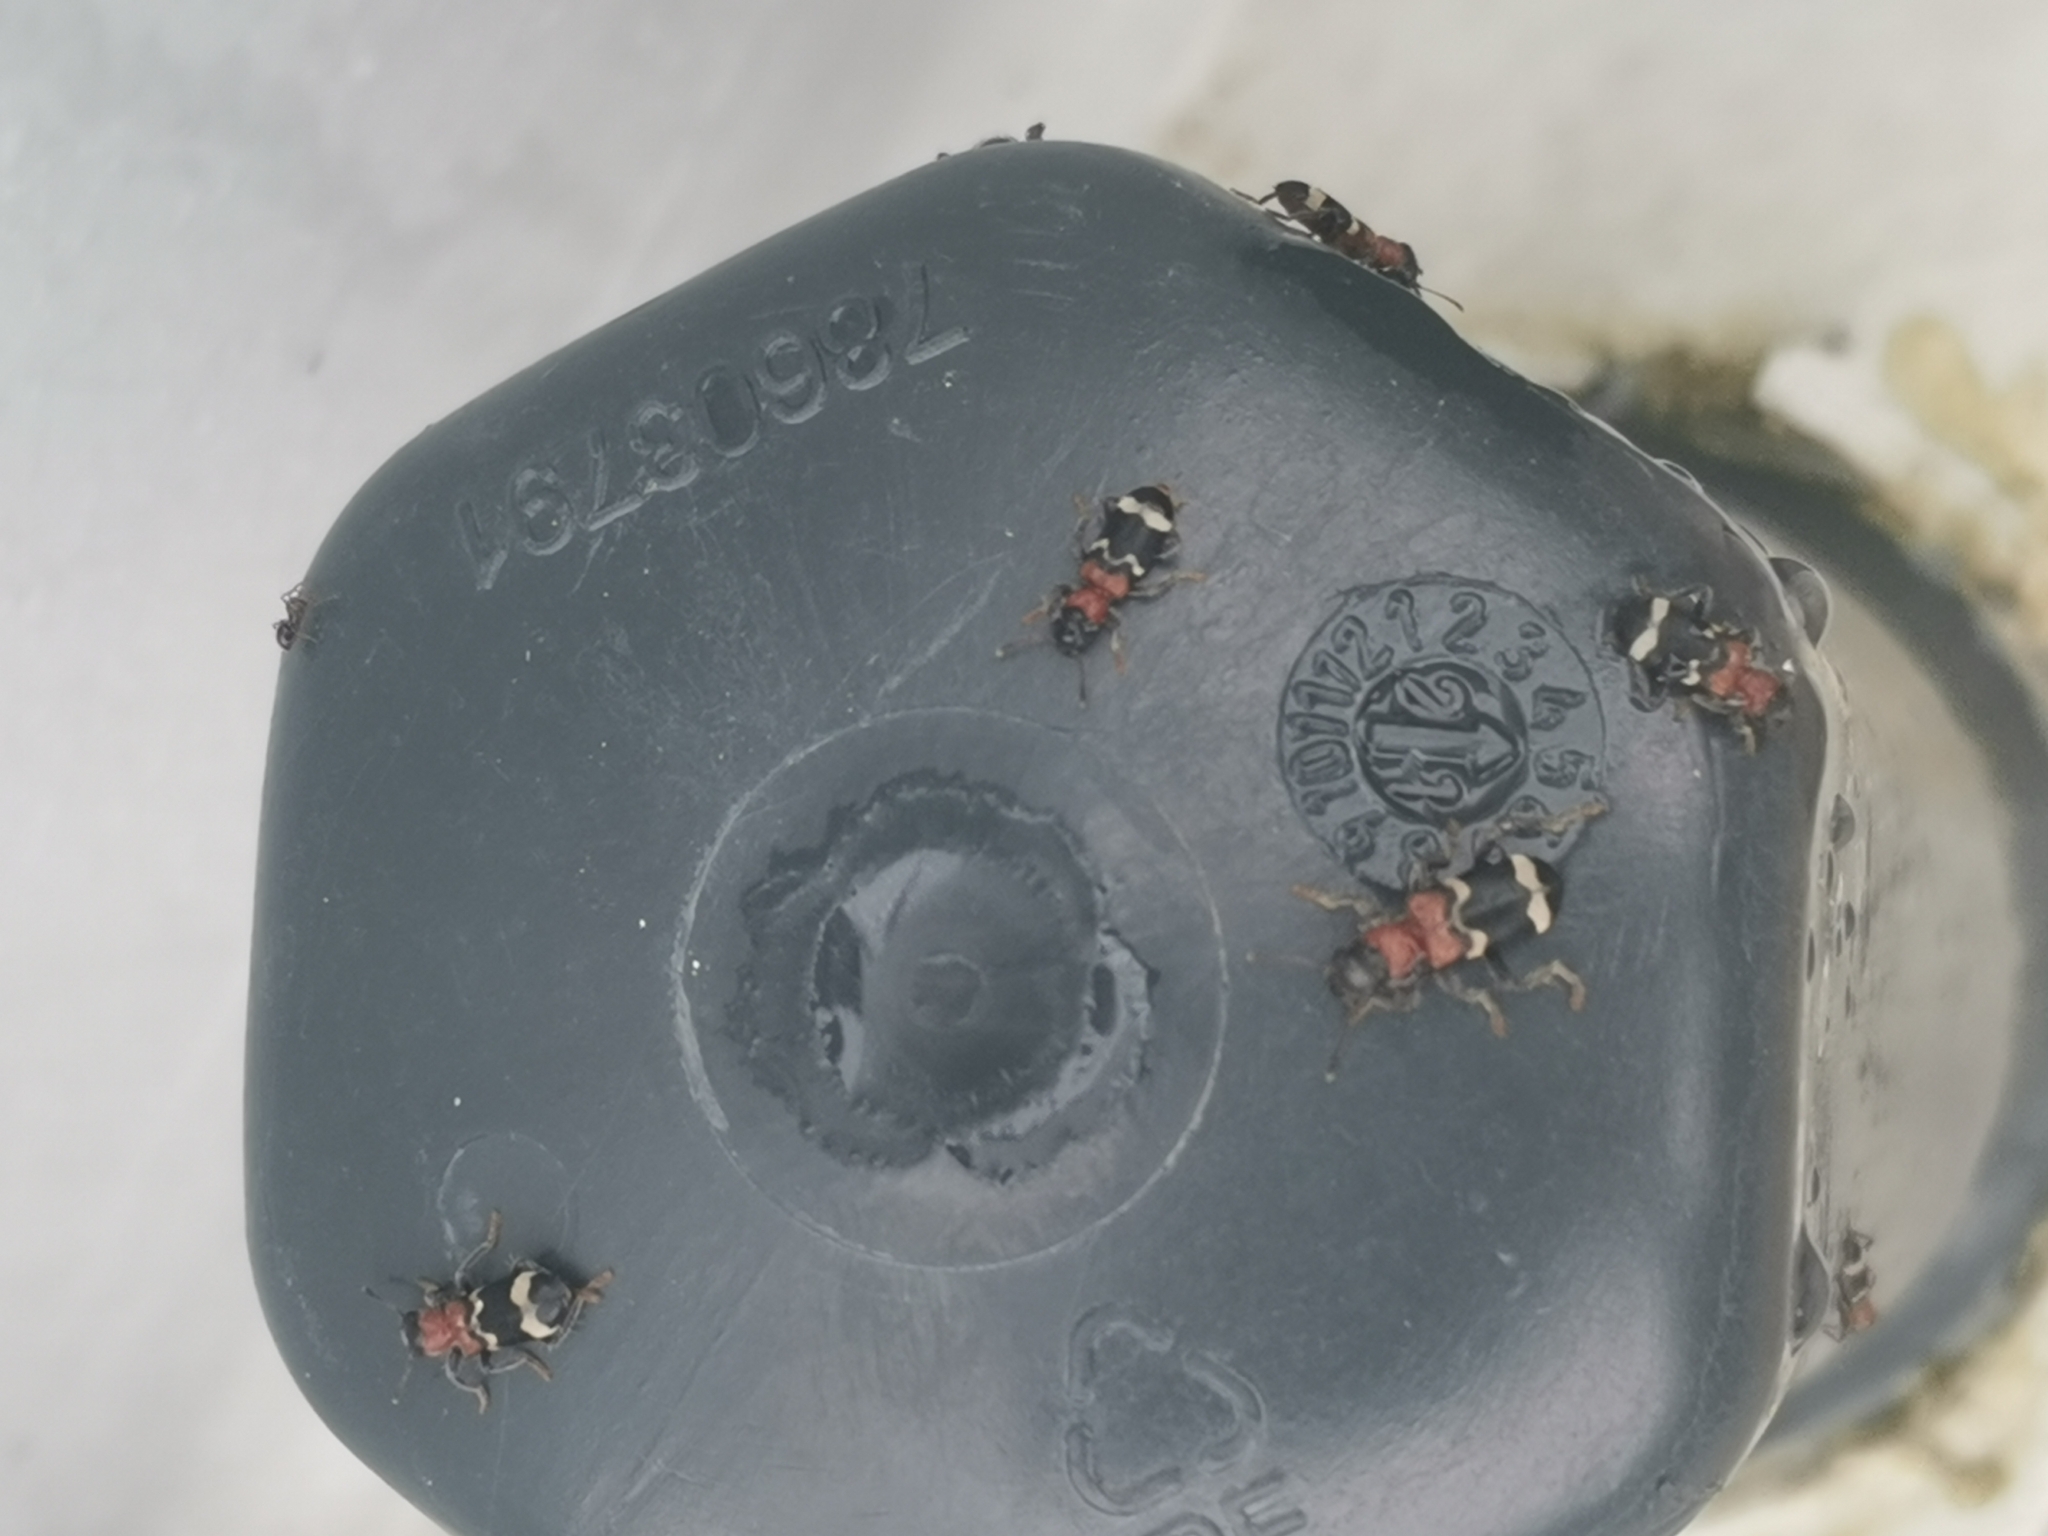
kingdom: Animalia
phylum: Arthropoda
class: Insecta
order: Coleoptera
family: Cleridae
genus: Thanasimus
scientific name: Thanasimus formicarius
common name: Ant beetle
